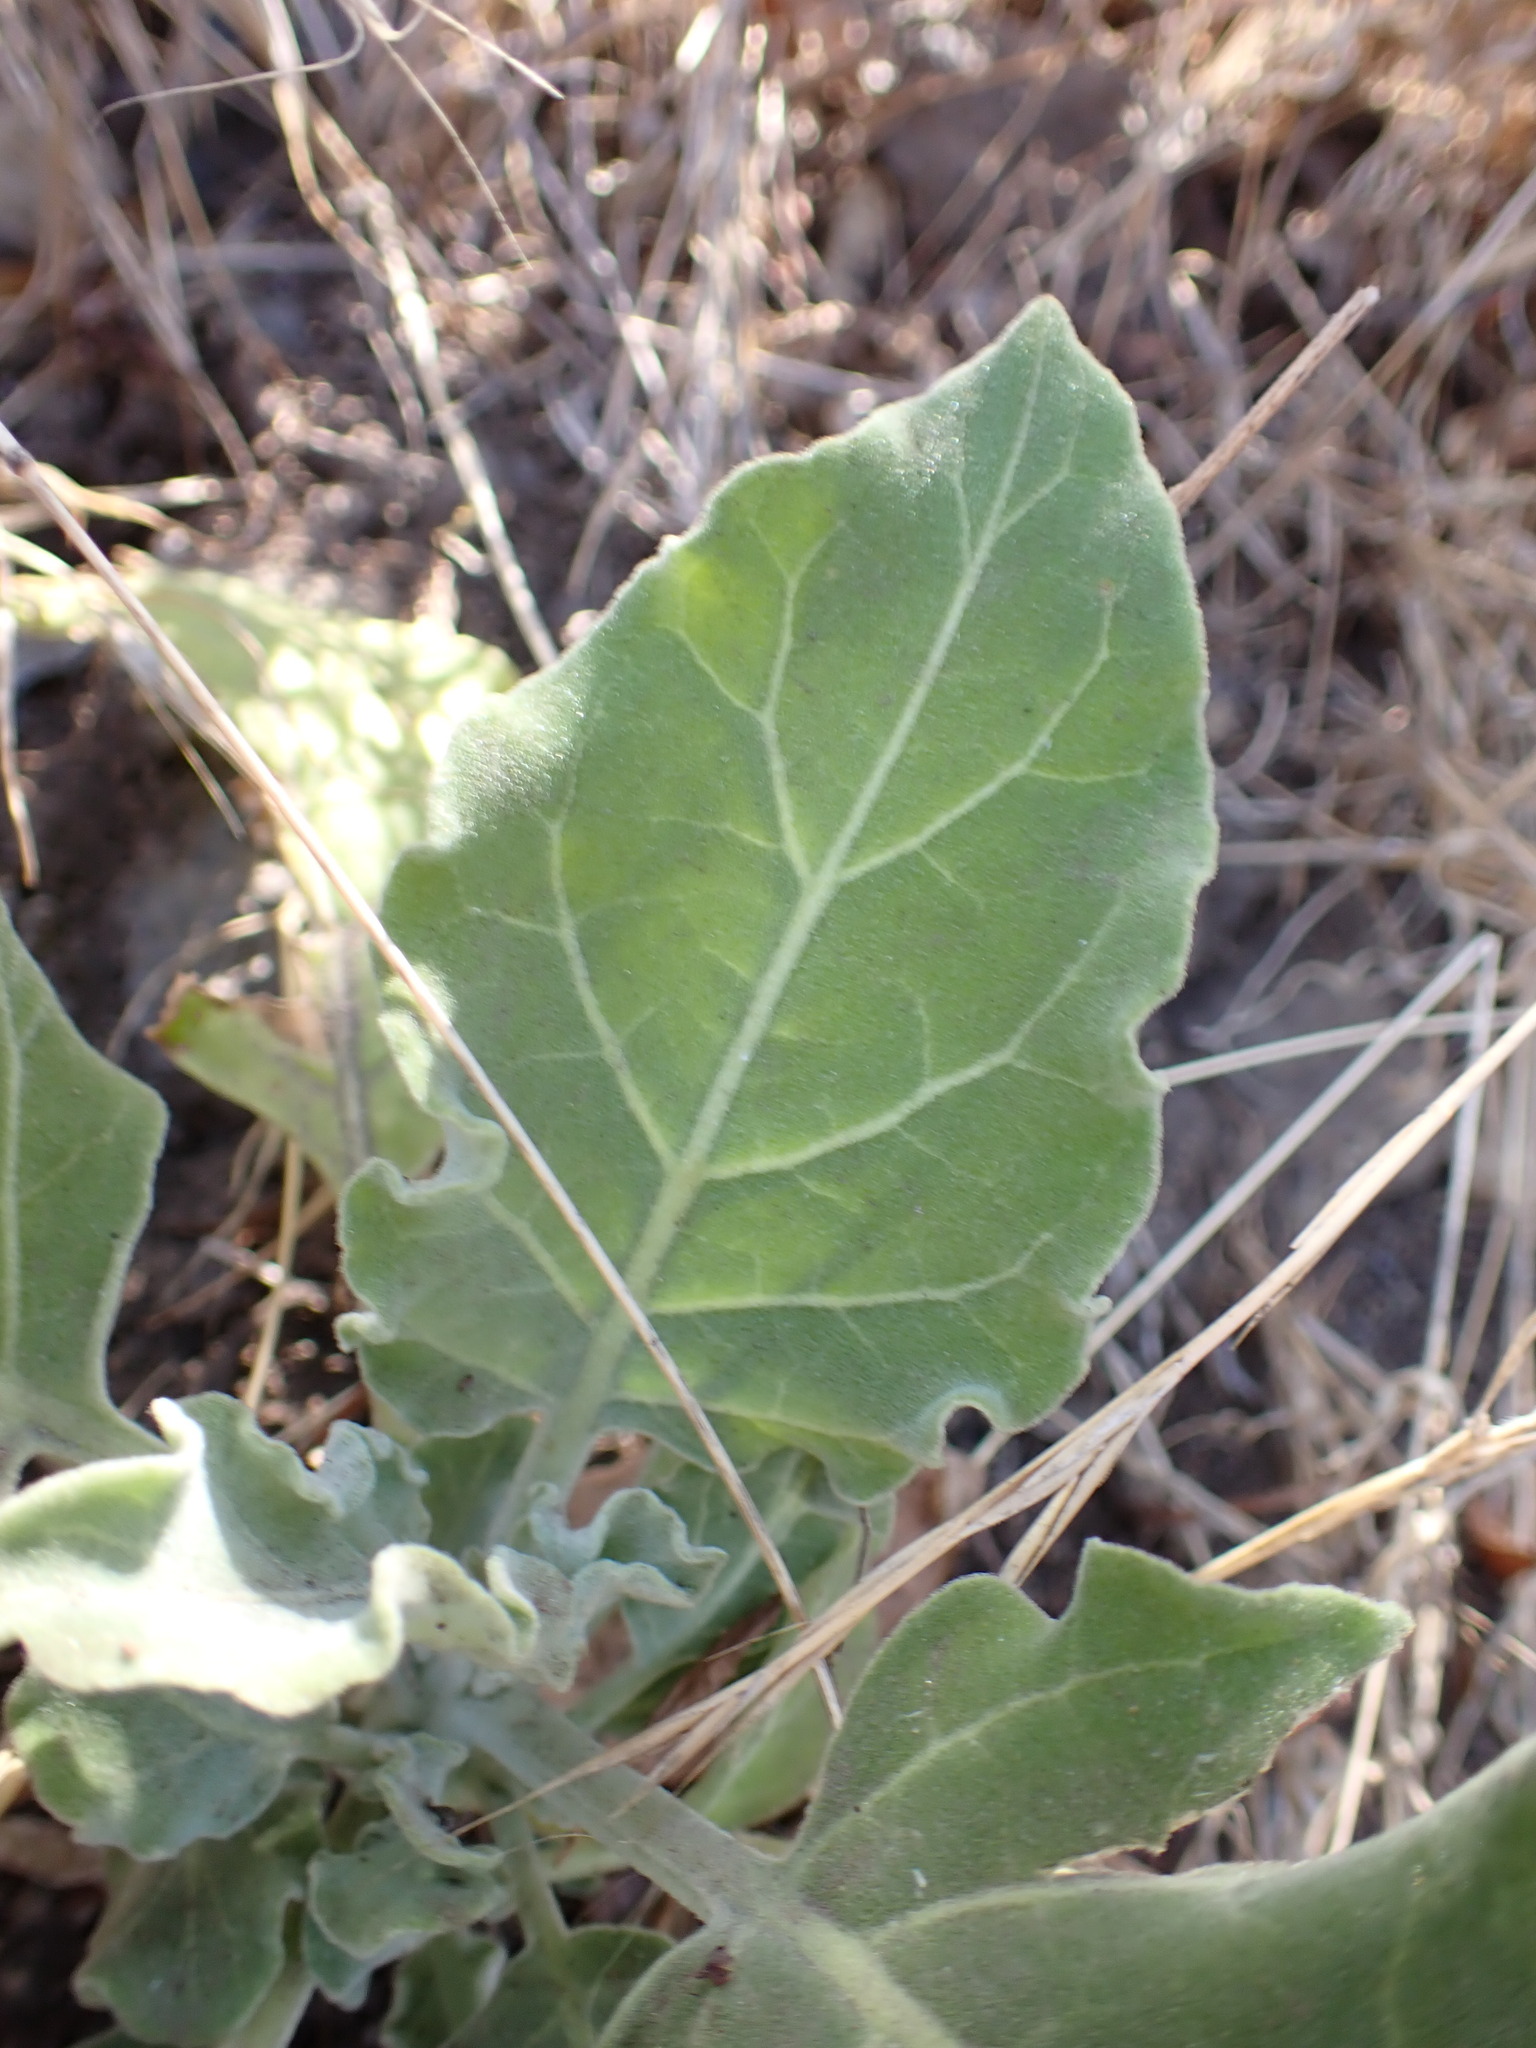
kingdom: Plantae
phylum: Tracheophyta
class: Magnoliopsida
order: Solanales
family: Solanaceae
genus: Nicotiana
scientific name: Nicotiana paniculata
